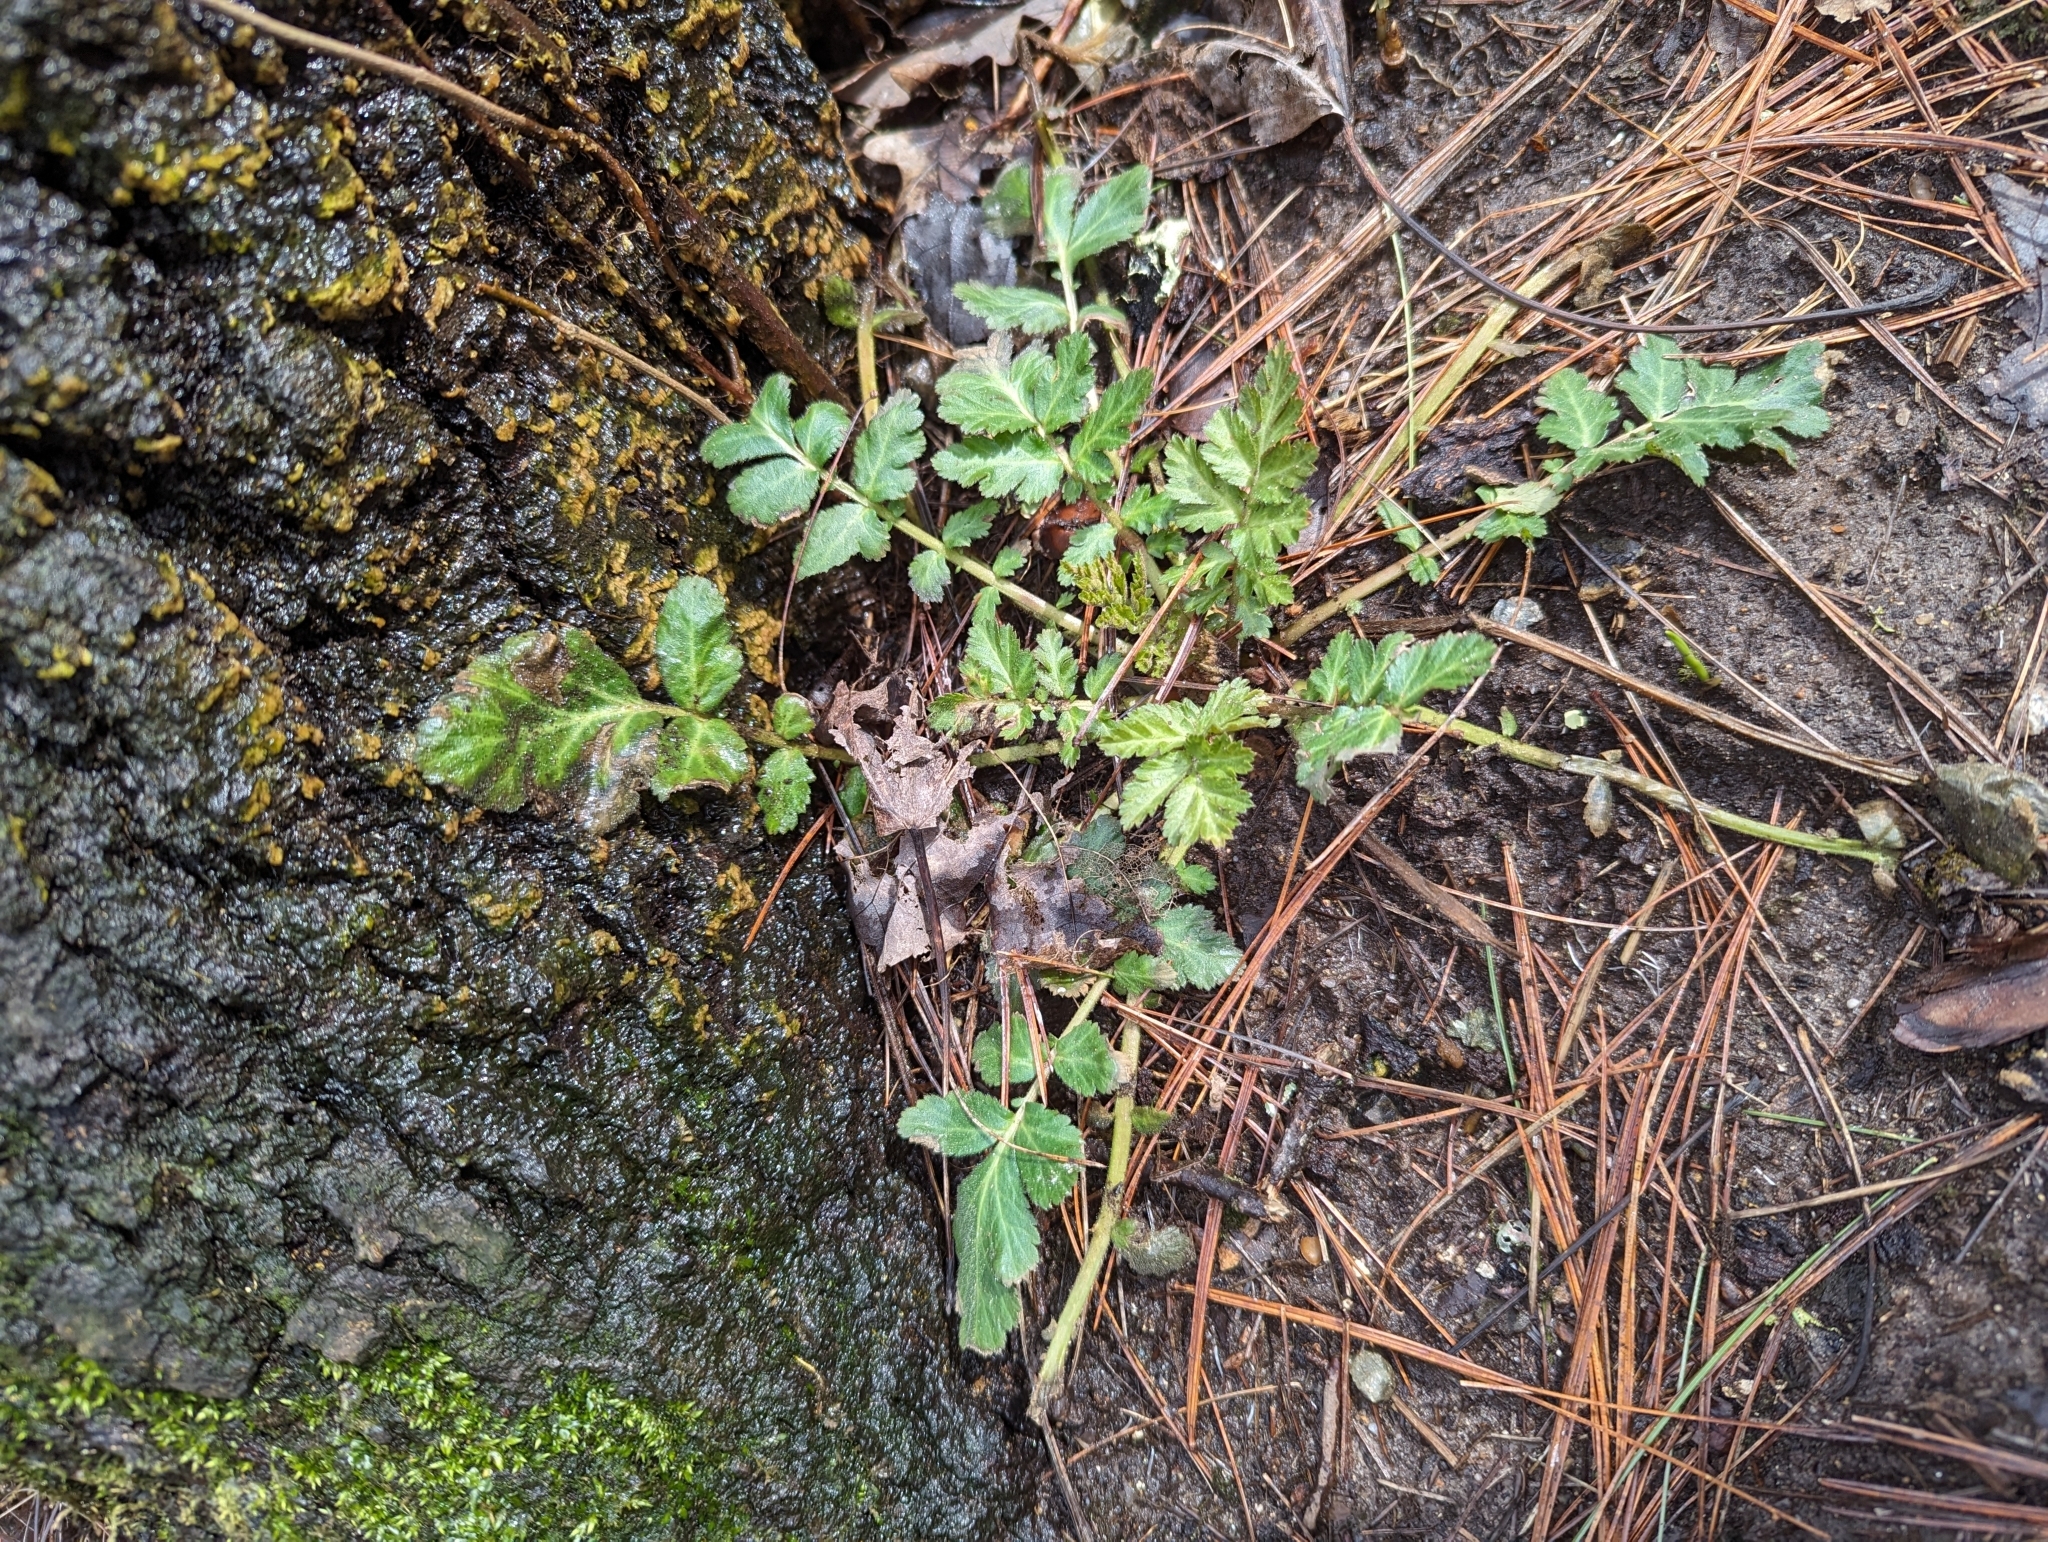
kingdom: Plantae
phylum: Tracheophyta
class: Magnoliopsida
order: Rosales
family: Rosaceae
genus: Geum
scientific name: Geum canadense
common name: White avens
